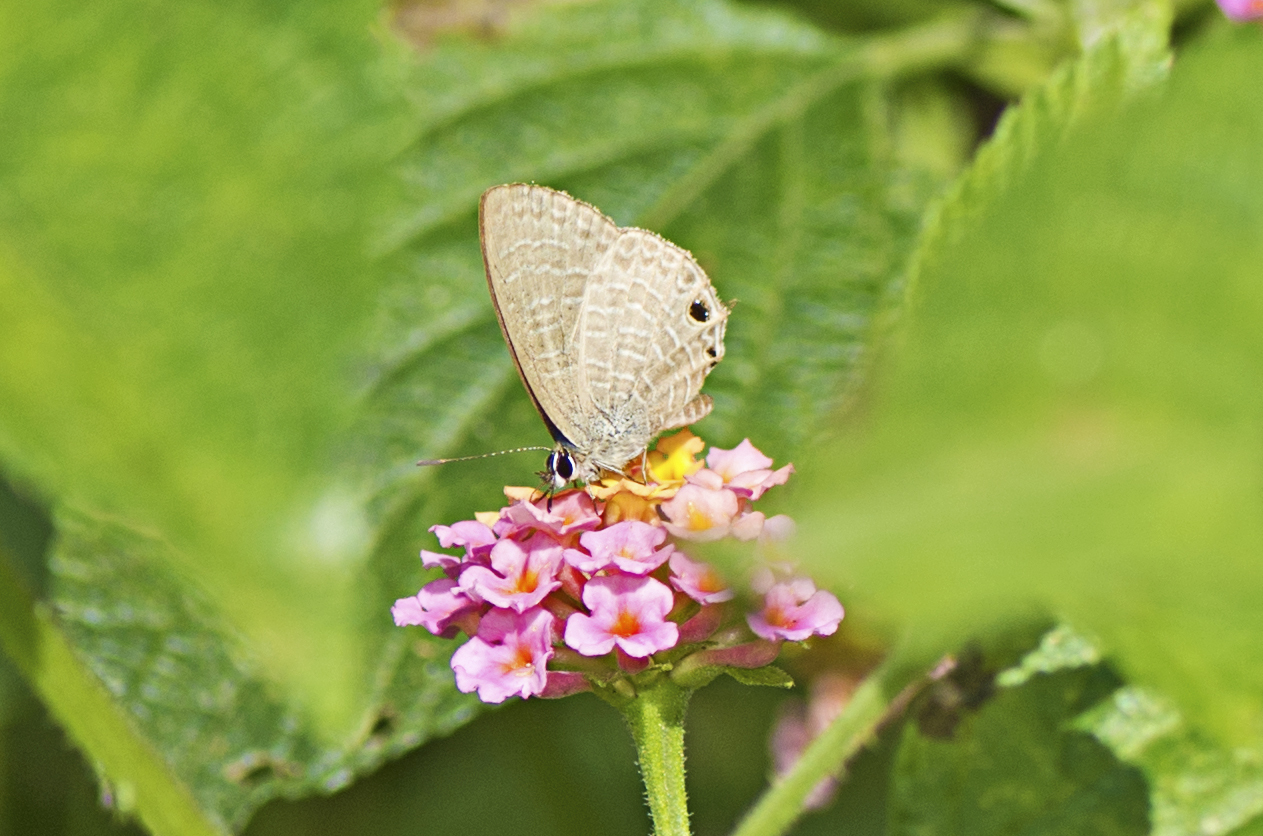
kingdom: Animalia
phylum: Arthropoda
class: Insecta
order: Lepidoptera
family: Lycaenidae
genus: Nacaduba
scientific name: Nacaduba berenice
